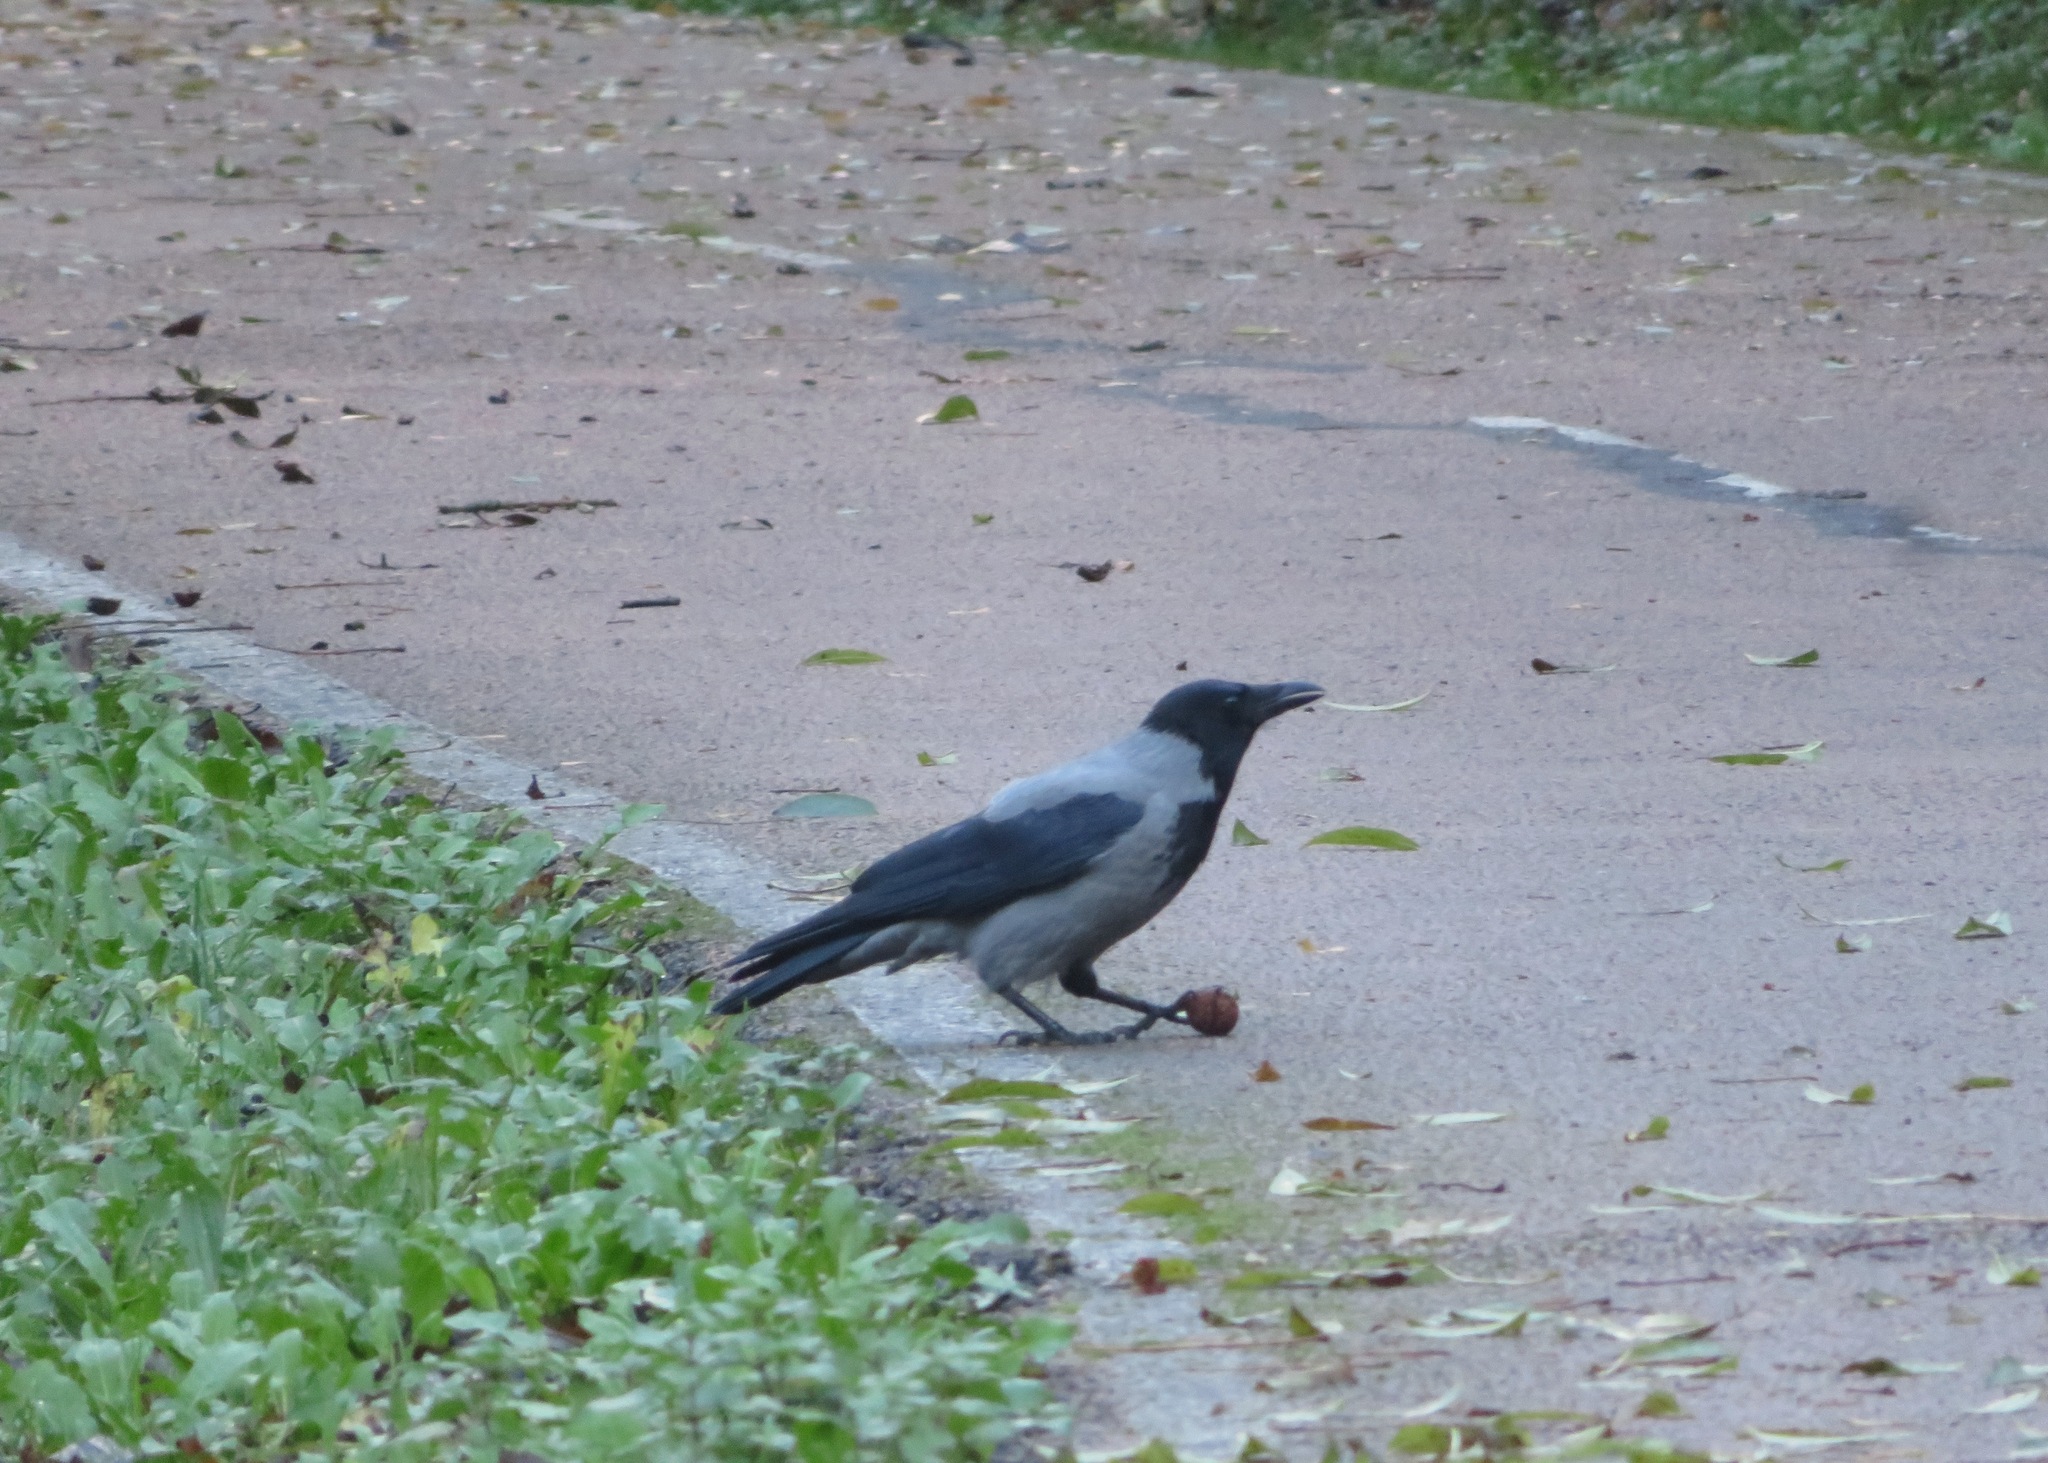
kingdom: Animalia
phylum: Chordata
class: Aves
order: Passeriformes
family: Corvidae
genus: Corvus
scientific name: Corvus cornix
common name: Hooded crow
